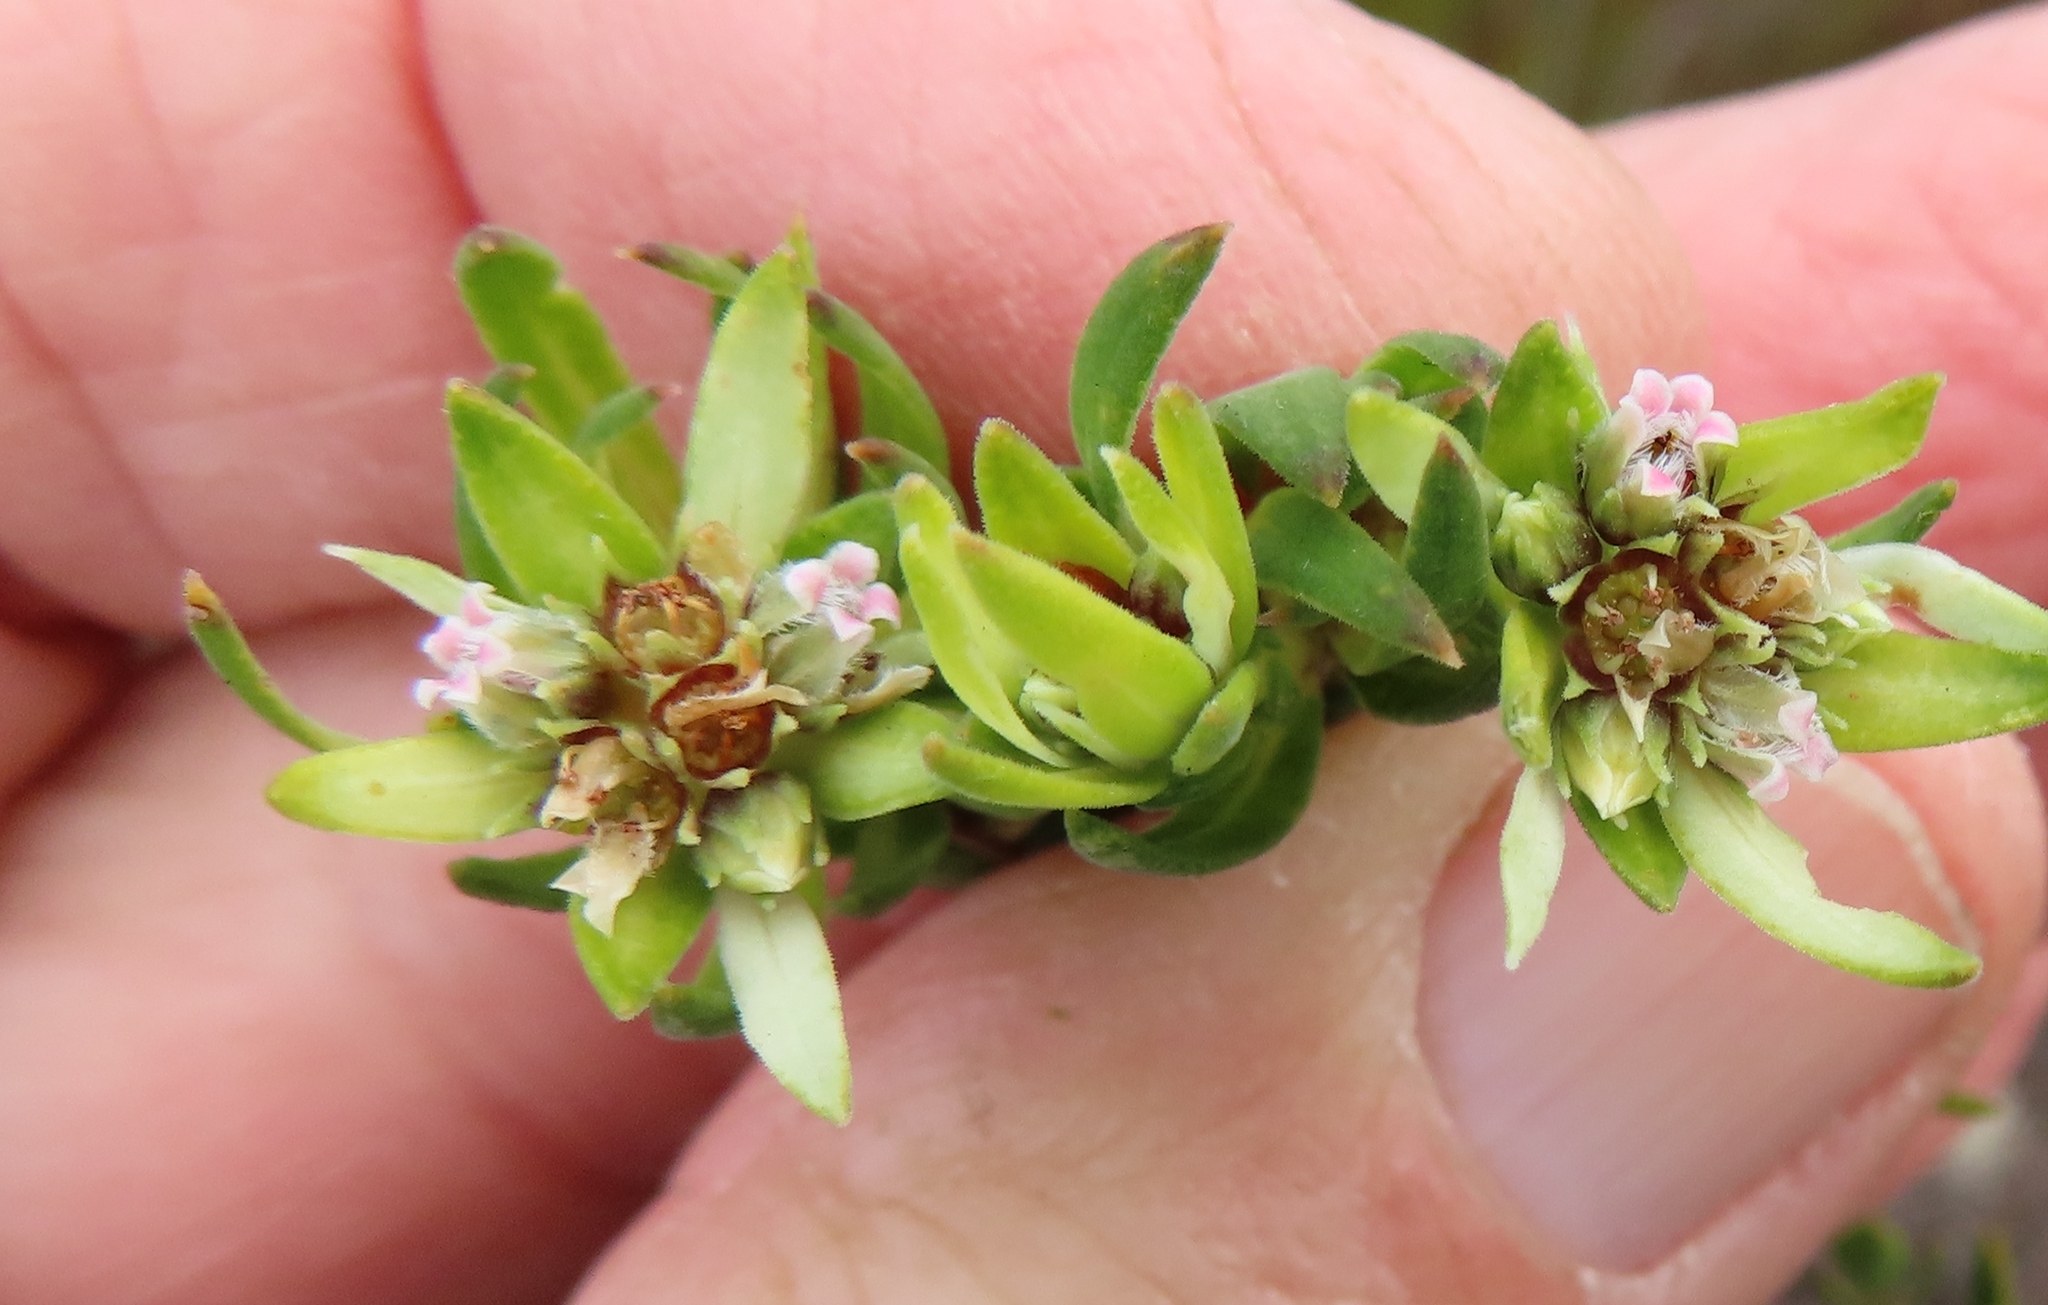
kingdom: Plantae
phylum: Tracheophyta
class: Magnoliopsida
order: Sapindales
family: Rutaceae
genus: Euchaetis
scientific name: Euchaetis longibracteata
